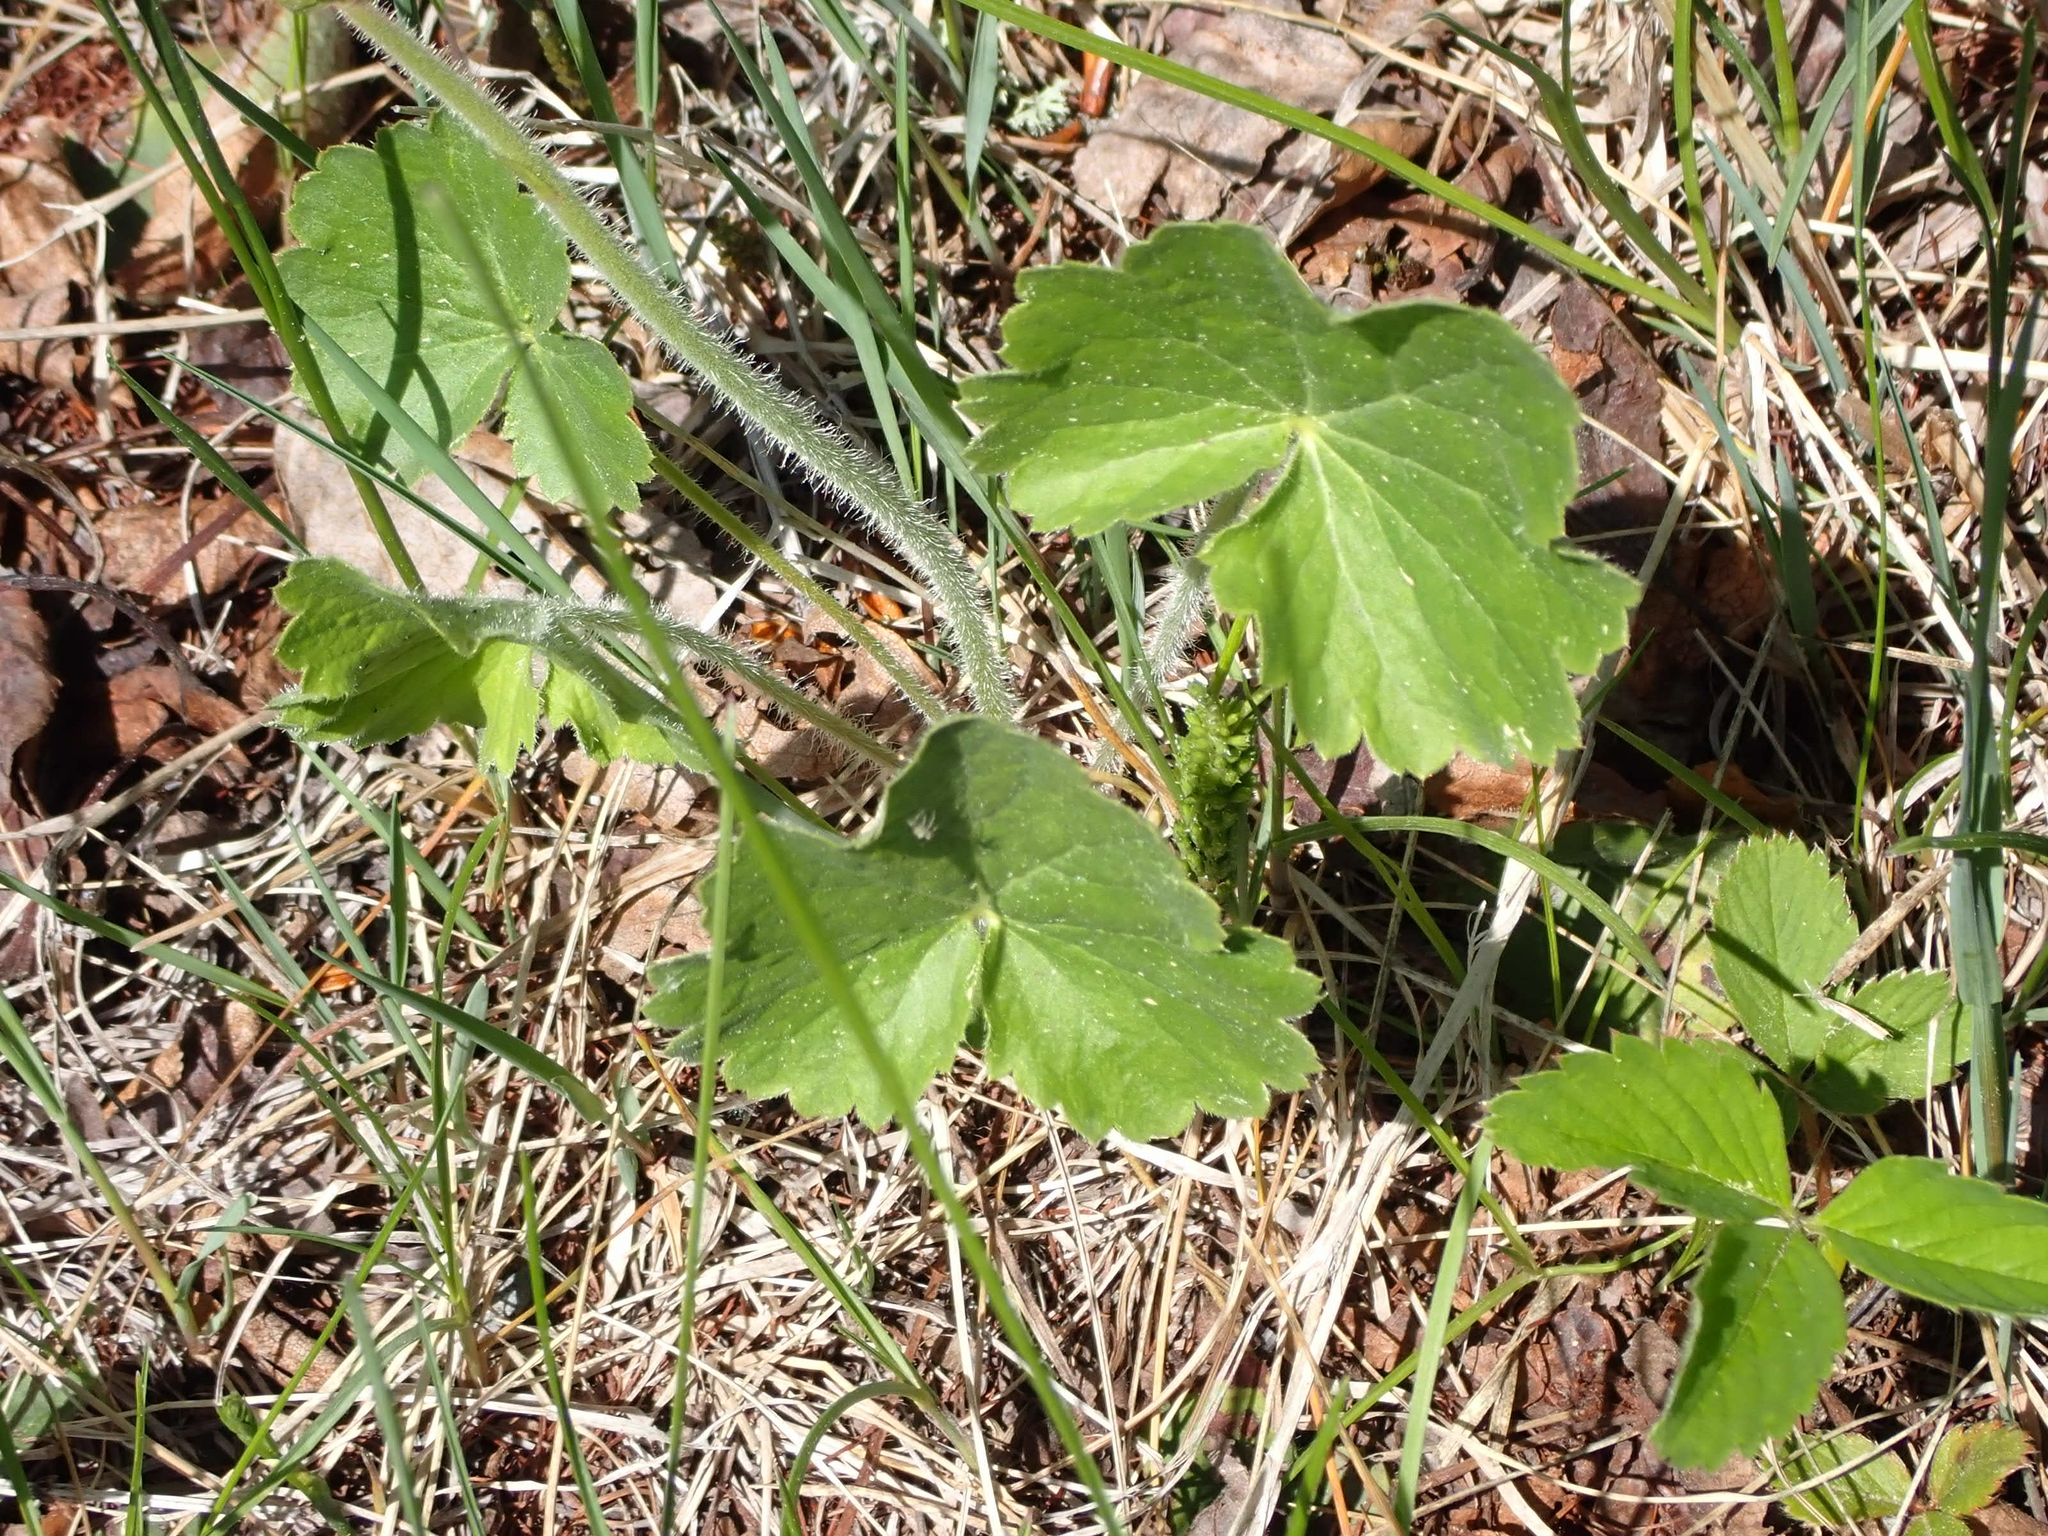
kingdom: Plantae
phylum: Tracheophyta
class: Magnoliopsida
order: Saxifragales
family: Saxifragaceae
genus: Heuchera
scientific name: Heuchera richardsonii
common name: Richardson's alumroot
